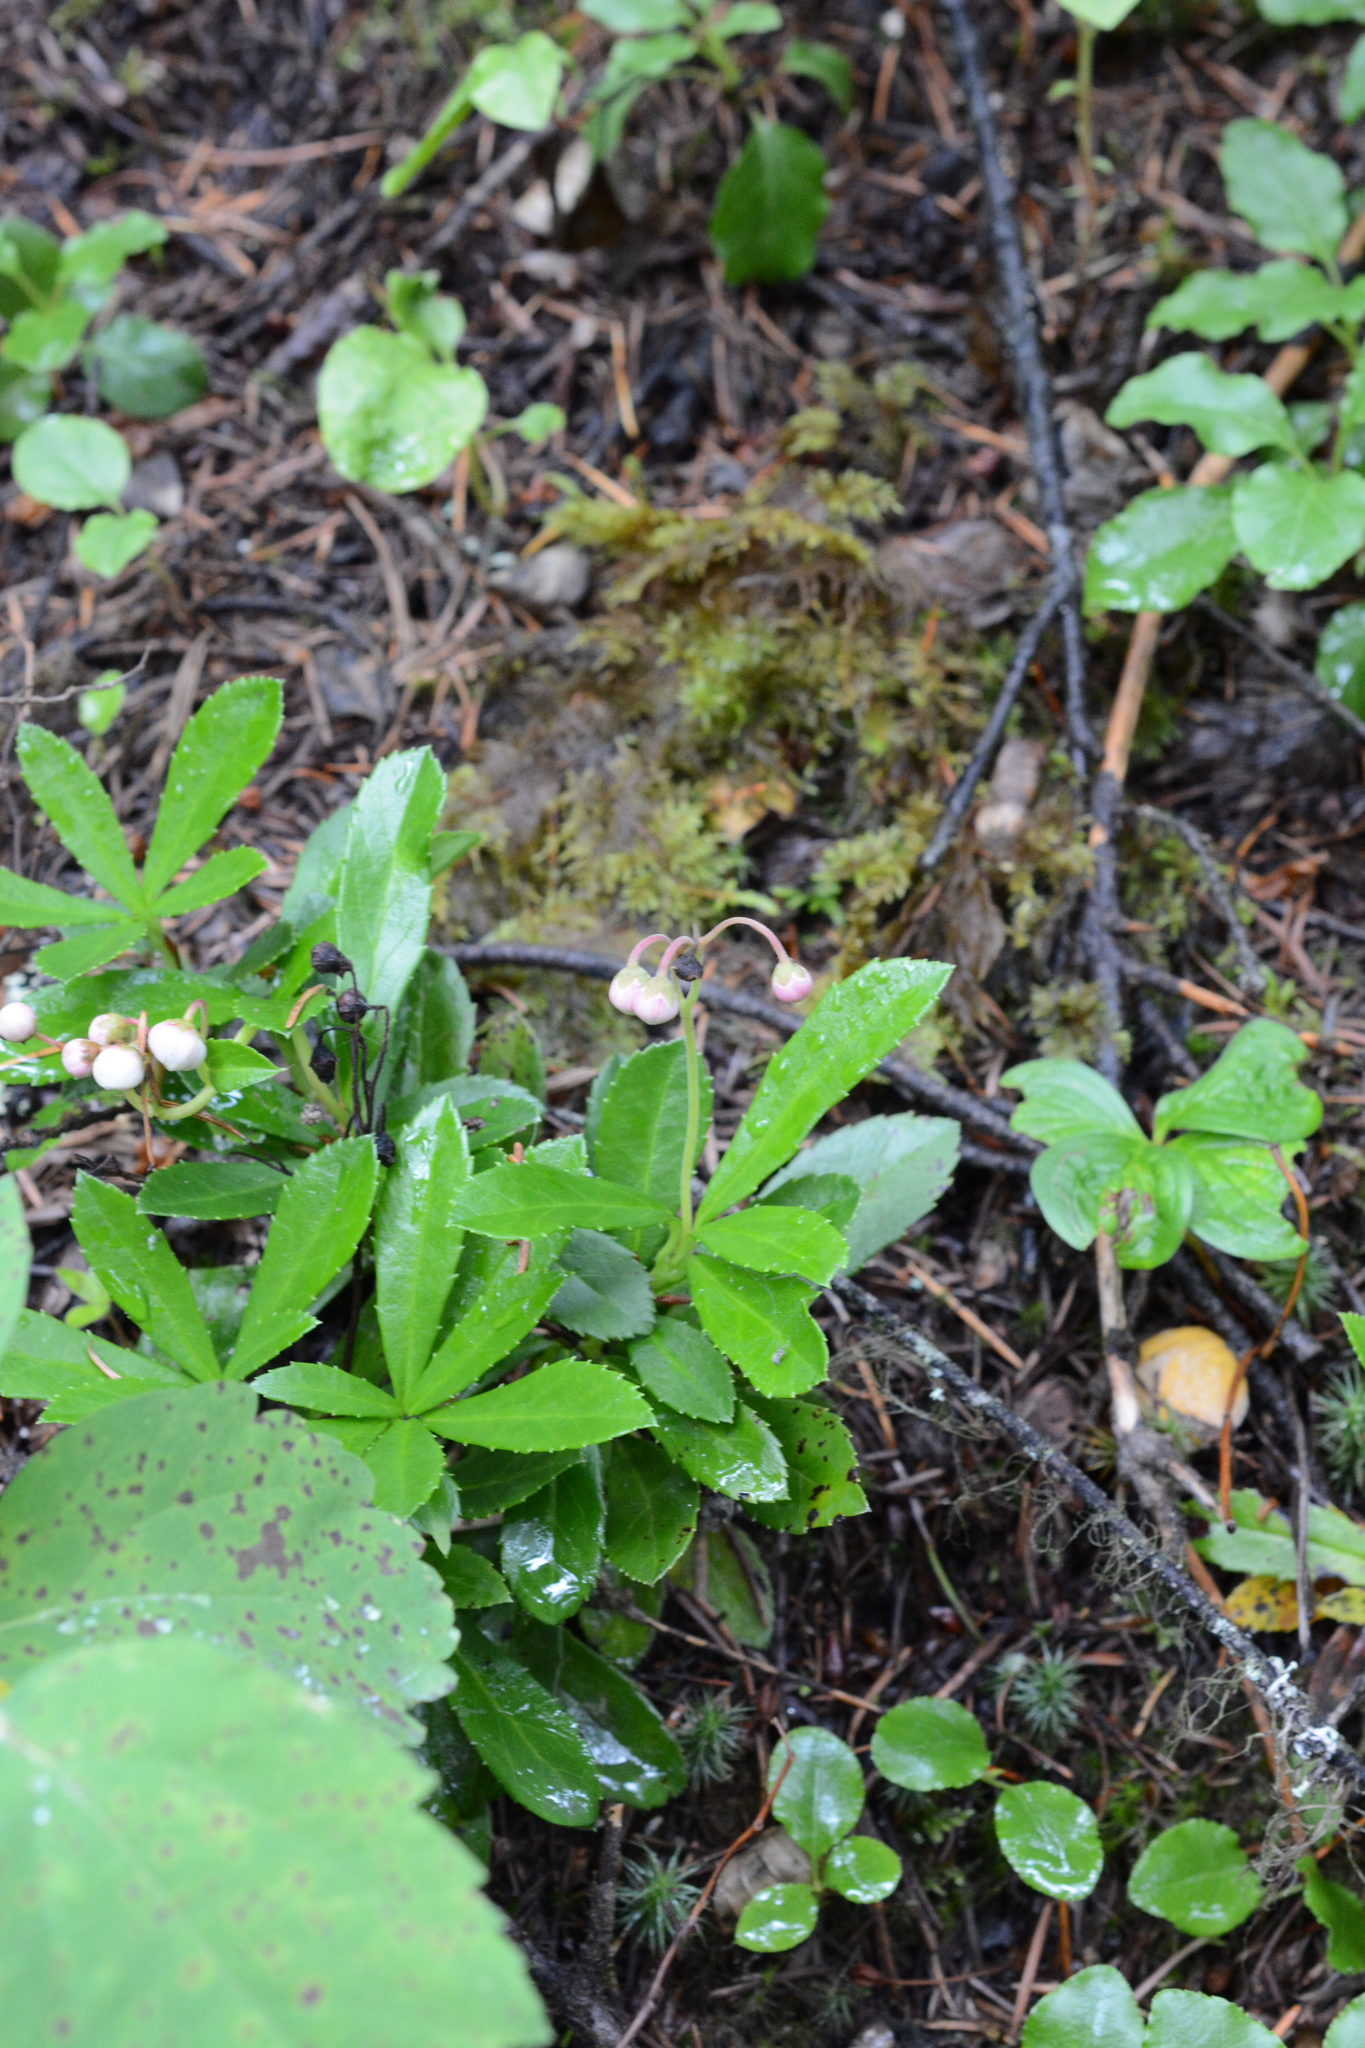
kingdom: Plantae
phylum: Tracheophyta
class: Magnoliopsida
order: Ericales
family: Ericaceae
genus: Chimaphila
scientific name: Chimaphila umbellata
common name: Pipsissewa
